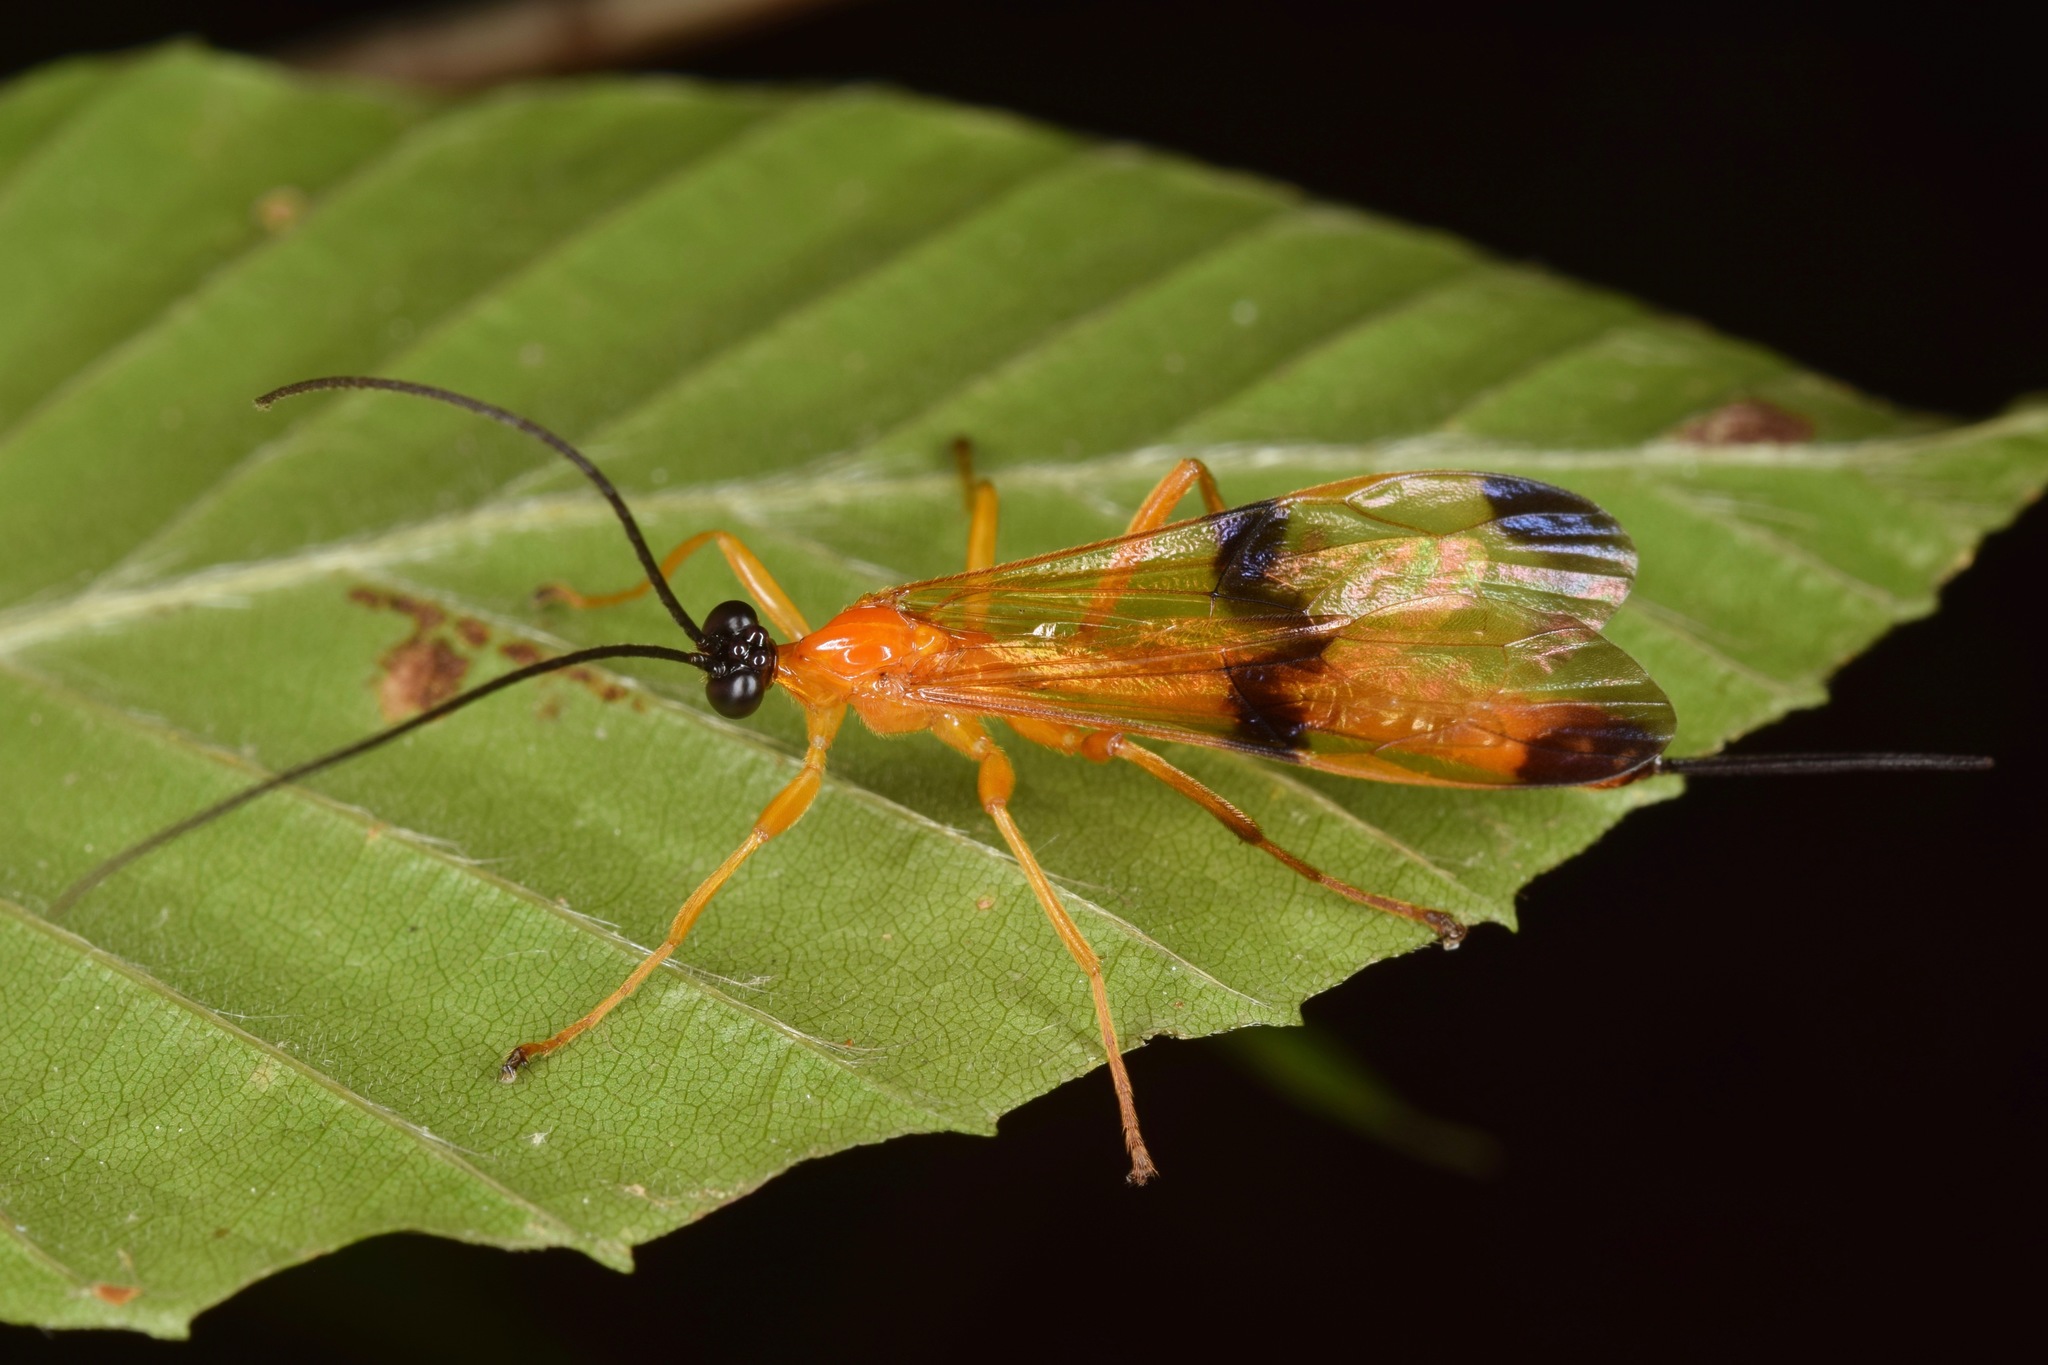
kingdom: Animalia
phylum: Arthropoda
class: Insecta
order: Hymenoptera
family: Ichneumonidae
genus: Acrotaphus
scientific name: Acrotaphus wiltii
